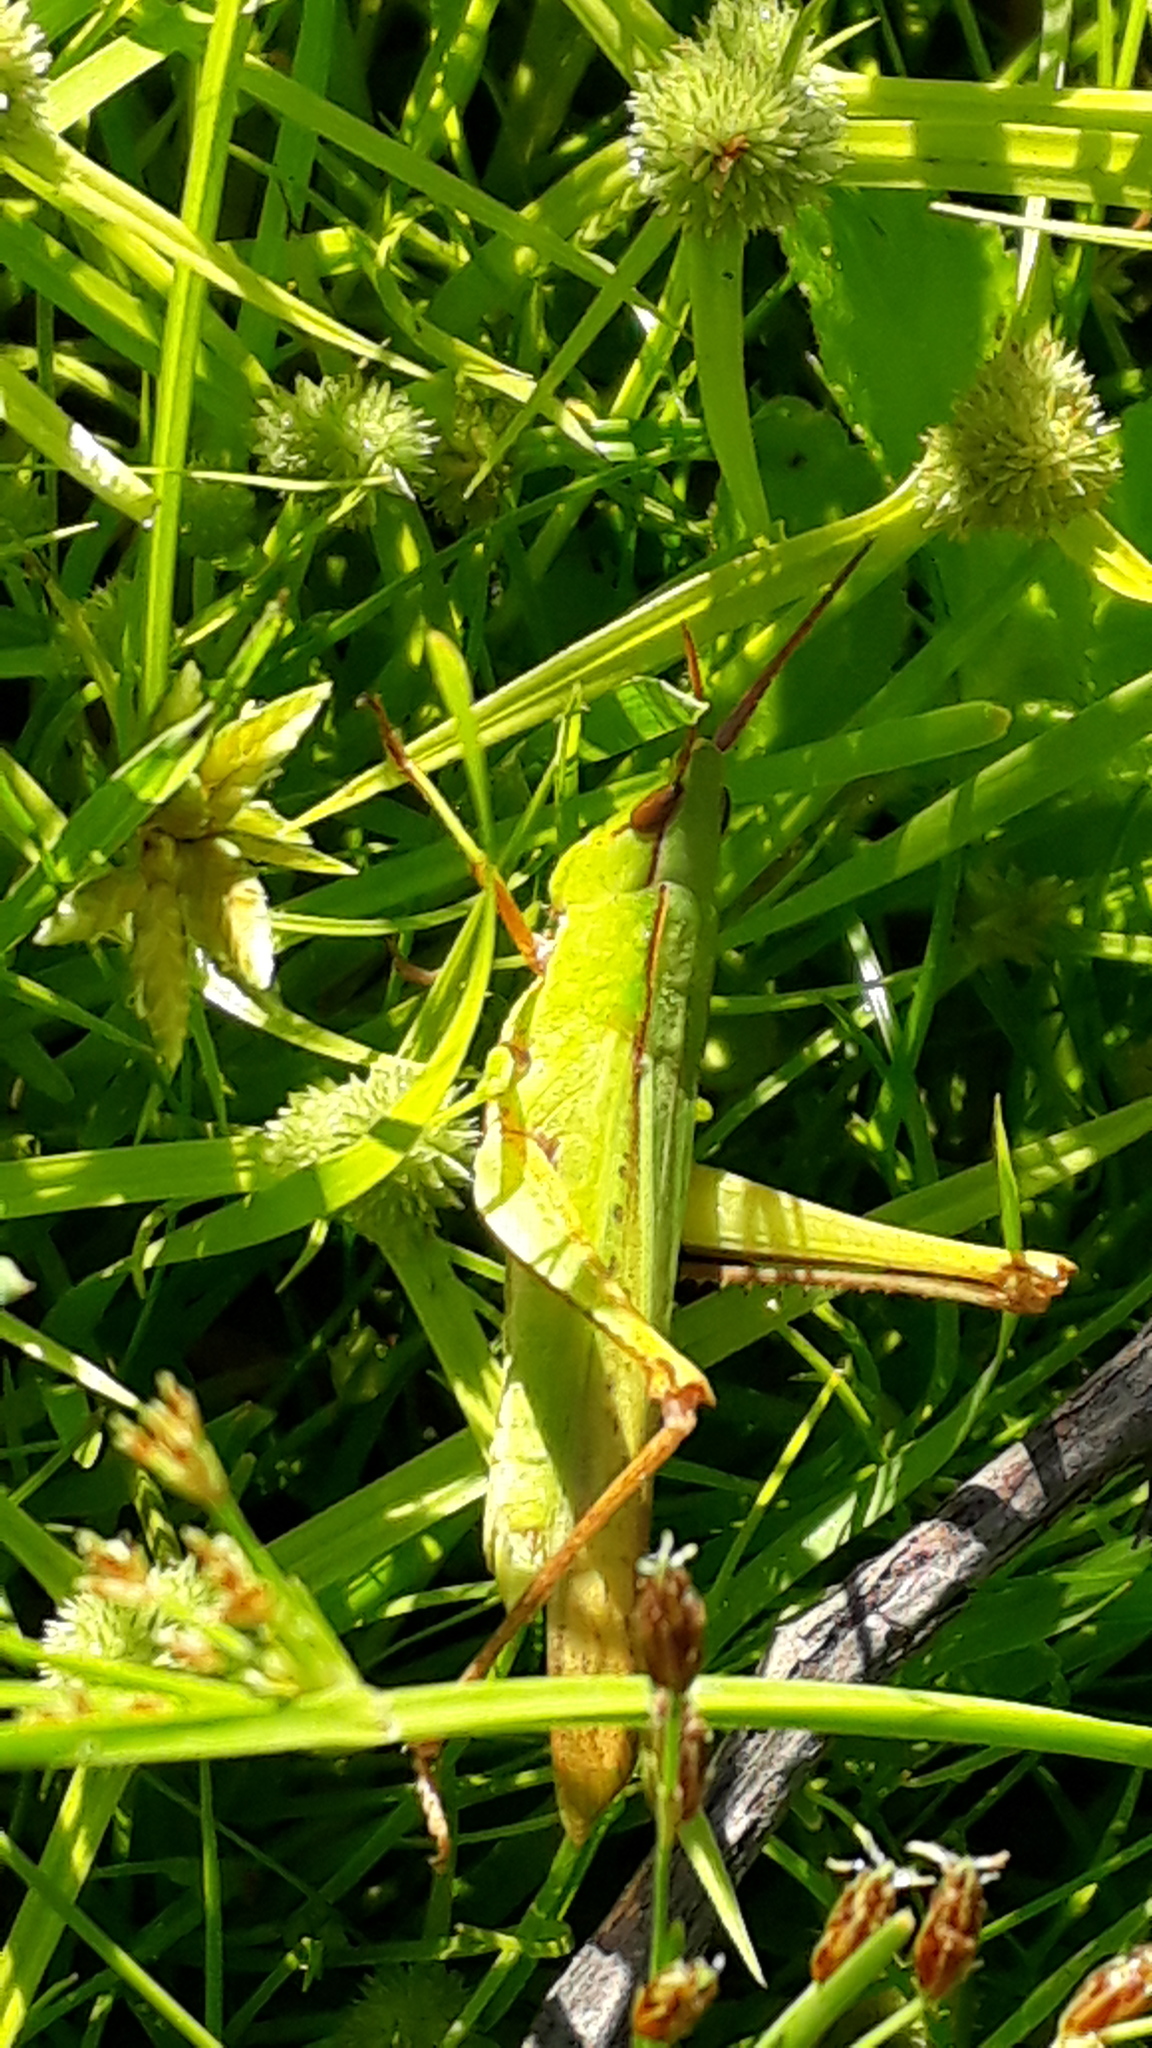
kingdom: Animalia
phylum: Arthropoda
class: Insecta
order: Orthoptera
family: Acrididae
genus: Metaleptea
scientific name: Metaleptea adspersa
